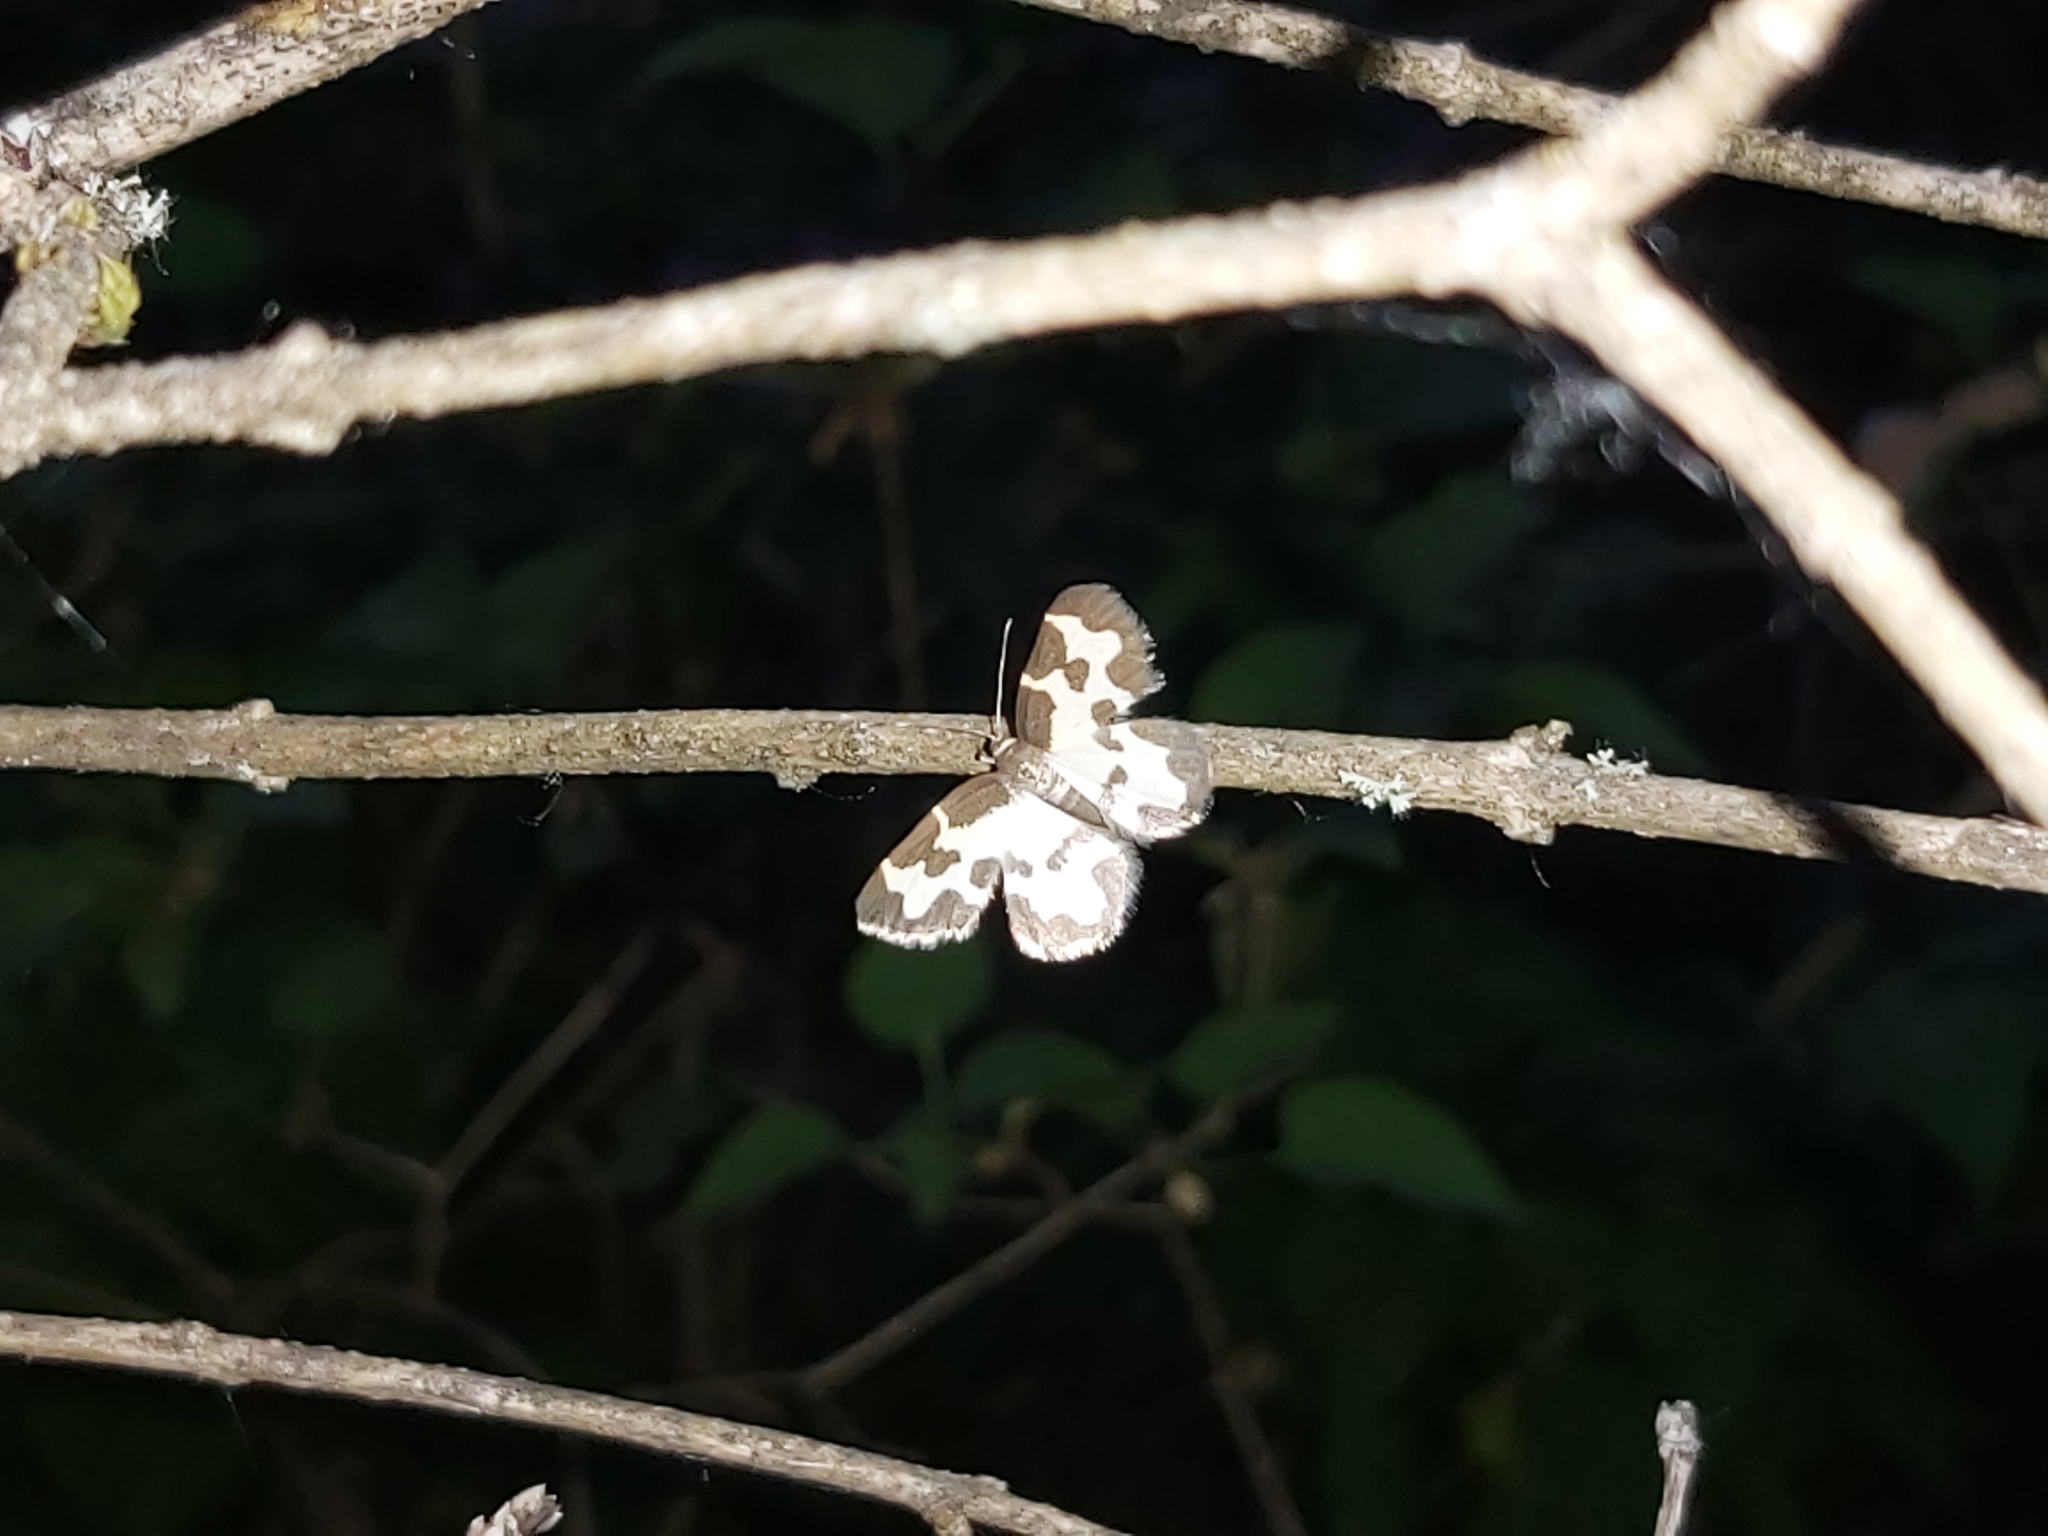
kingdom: Animalia
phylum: Arthropoda
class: Insecta
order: Lepidoptera
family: Geometridae
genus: Lomaspilis
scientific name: Lomaspilis marginata
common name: Clouded border
